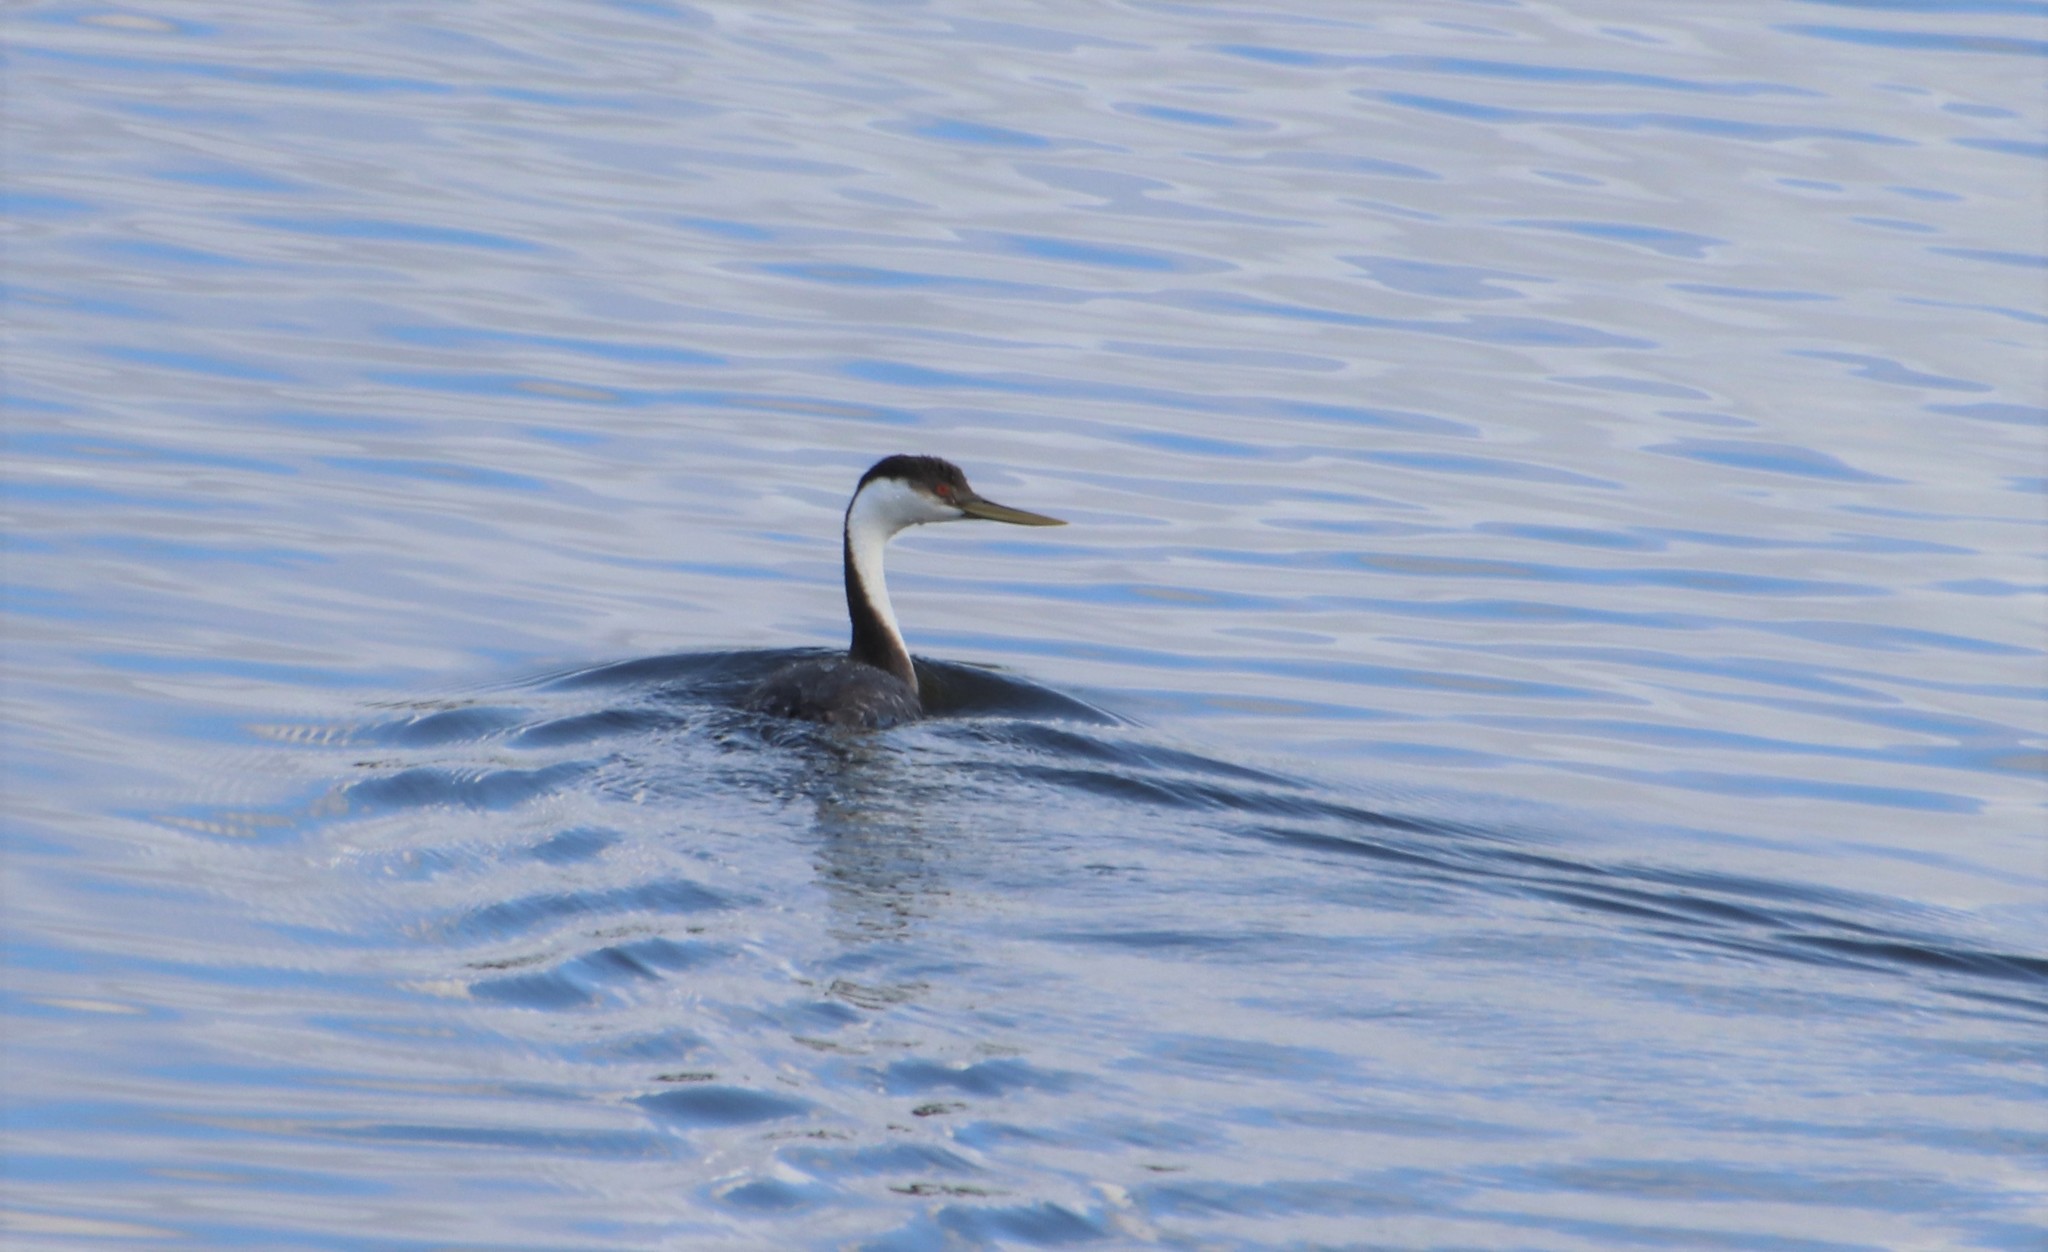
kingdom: Animalia
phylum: Chordata
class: Aves
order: Podicipediformes
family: Podicipedidae
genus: Aechmophorus
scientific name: Aechmophorus occidentalis
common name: Western grebe
